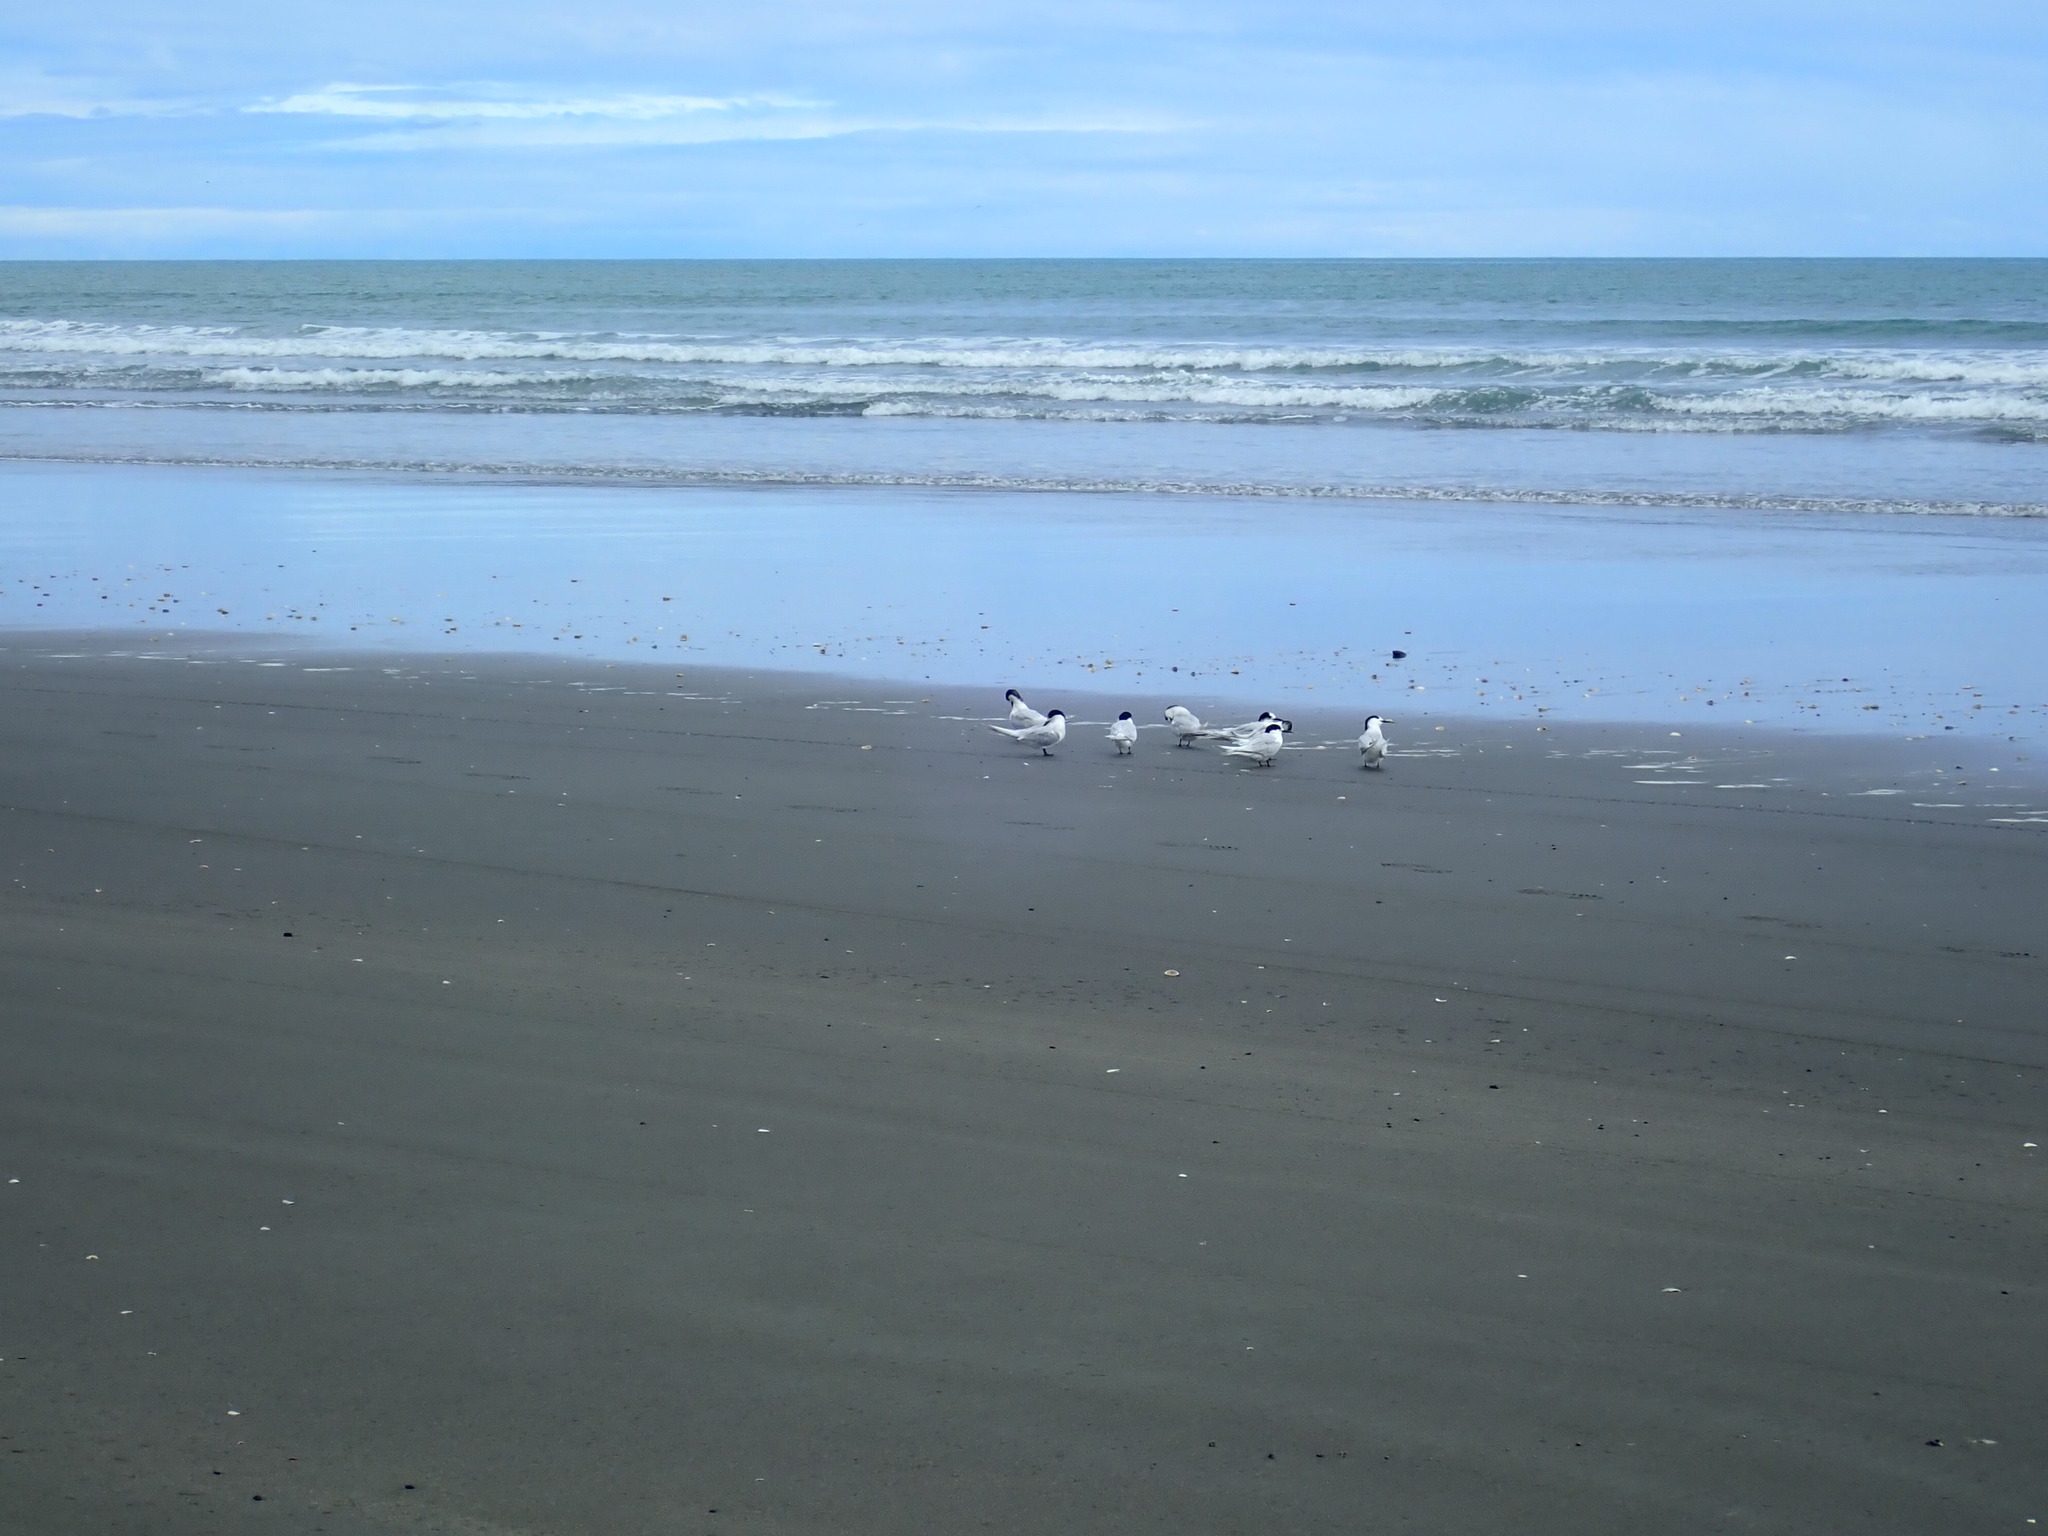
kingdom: Animalia
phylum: Chordata
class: Aves
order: Charadriiformes
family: Laridae
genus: Sterna
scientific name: Sterna striata
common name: White-fronted tern
